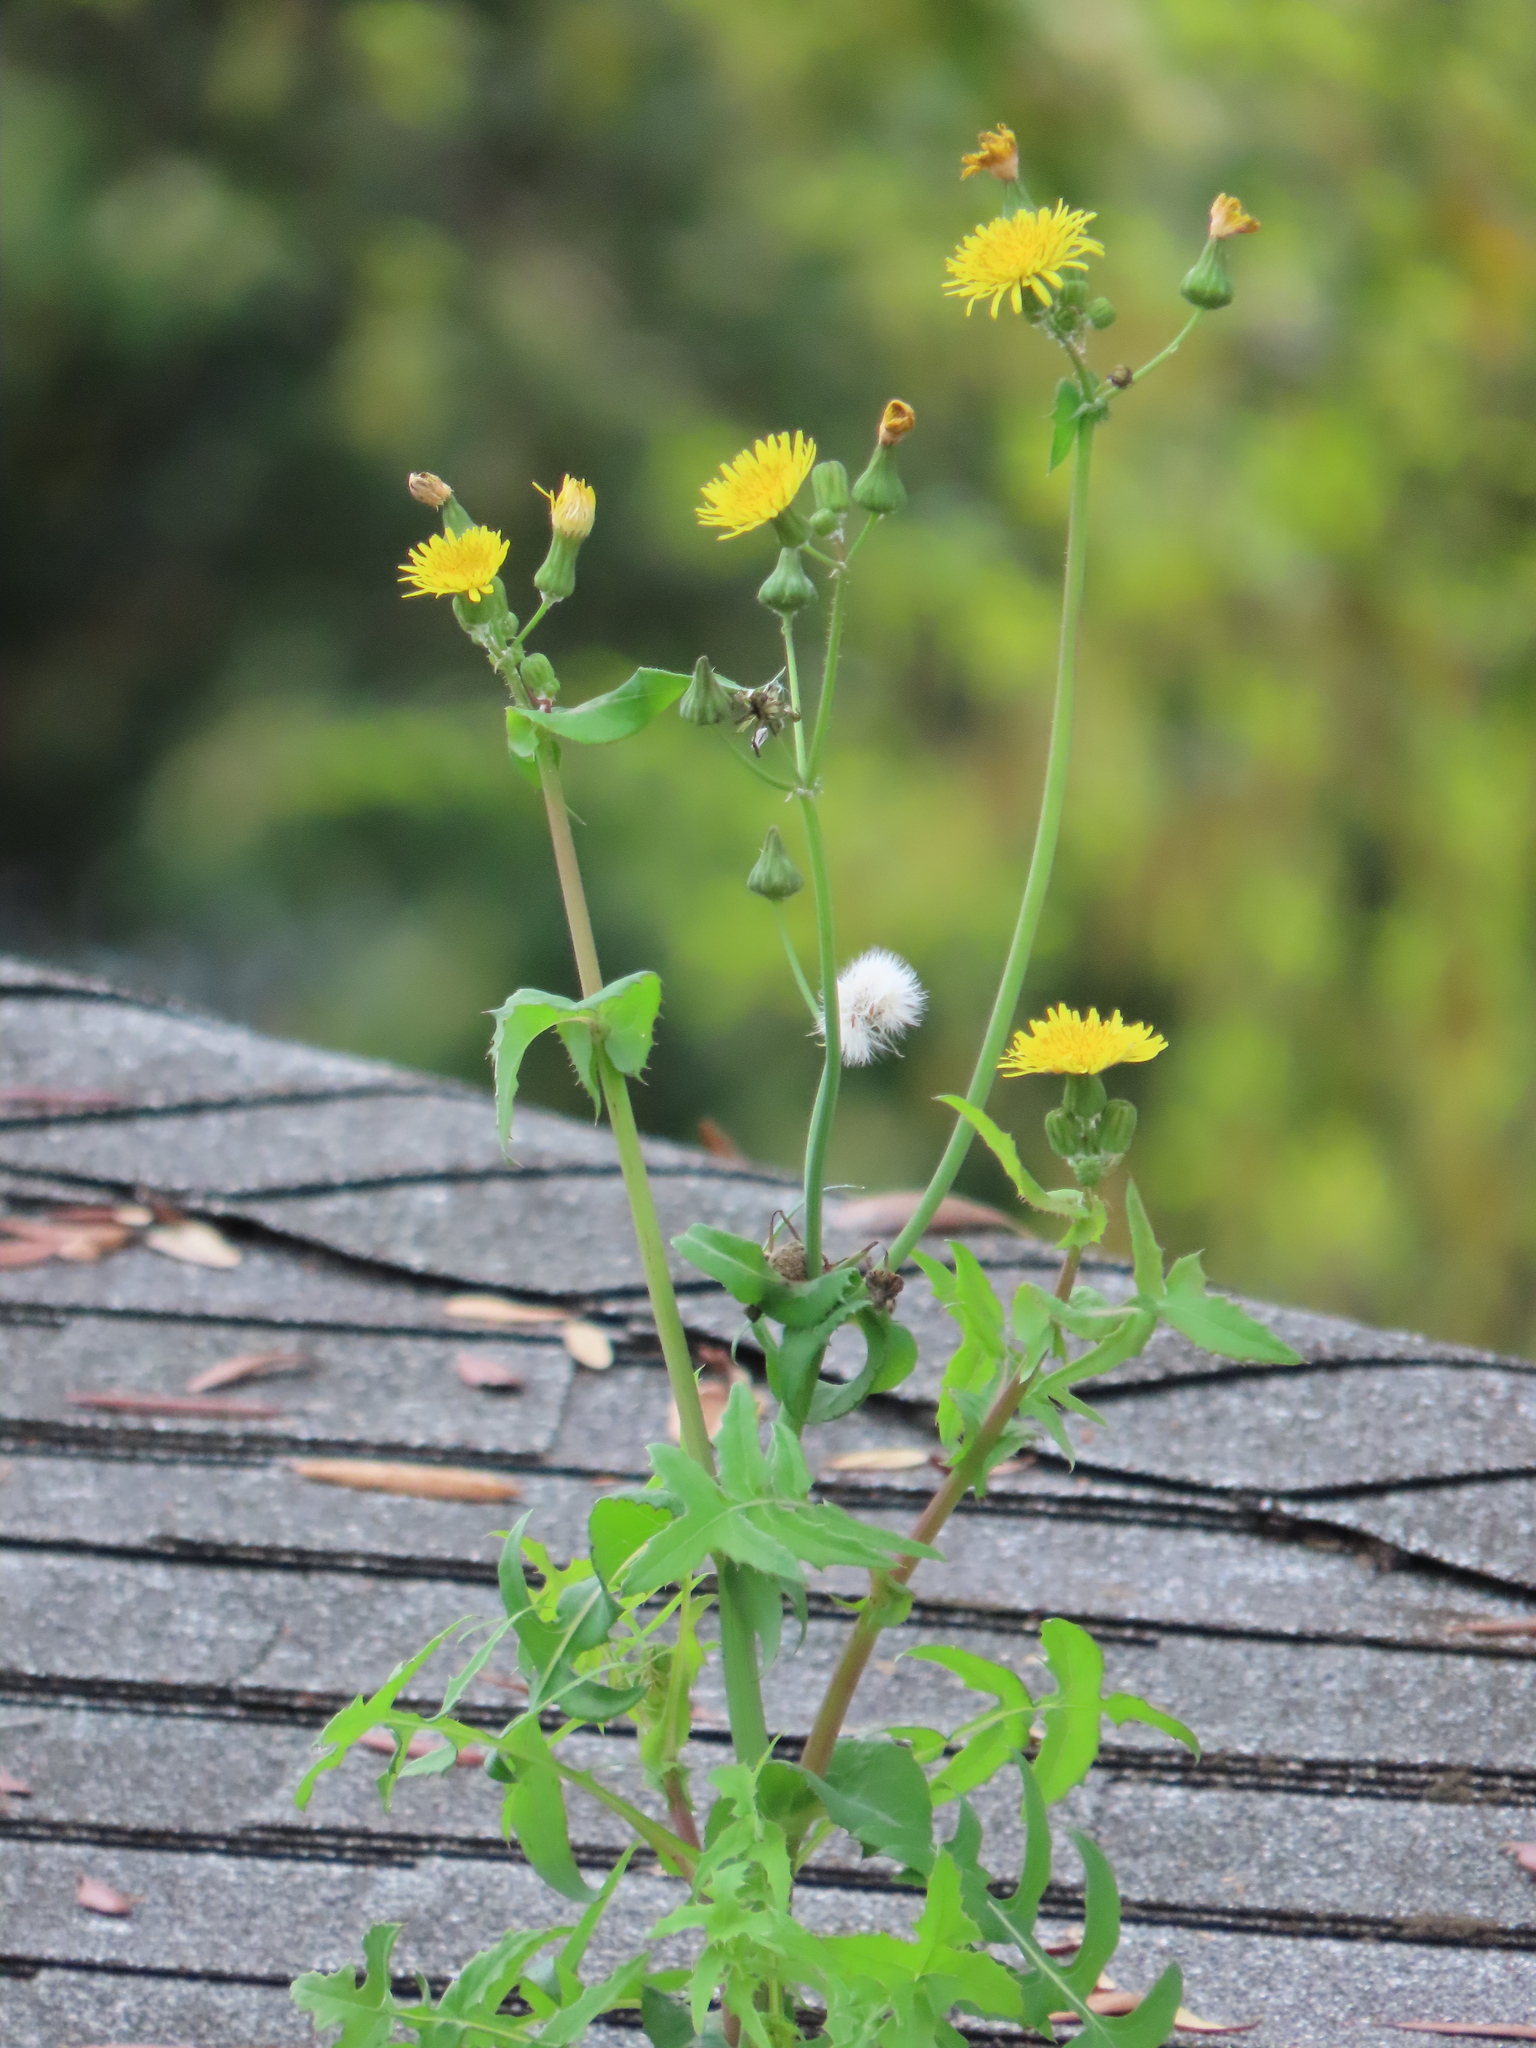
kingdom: Plantae
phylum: Tracheophyta
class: Magnoliopsida
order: Asterales
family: Asteraceae
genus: Sonchus
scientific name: Sonchus oleraceus
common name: Common sowthistle
